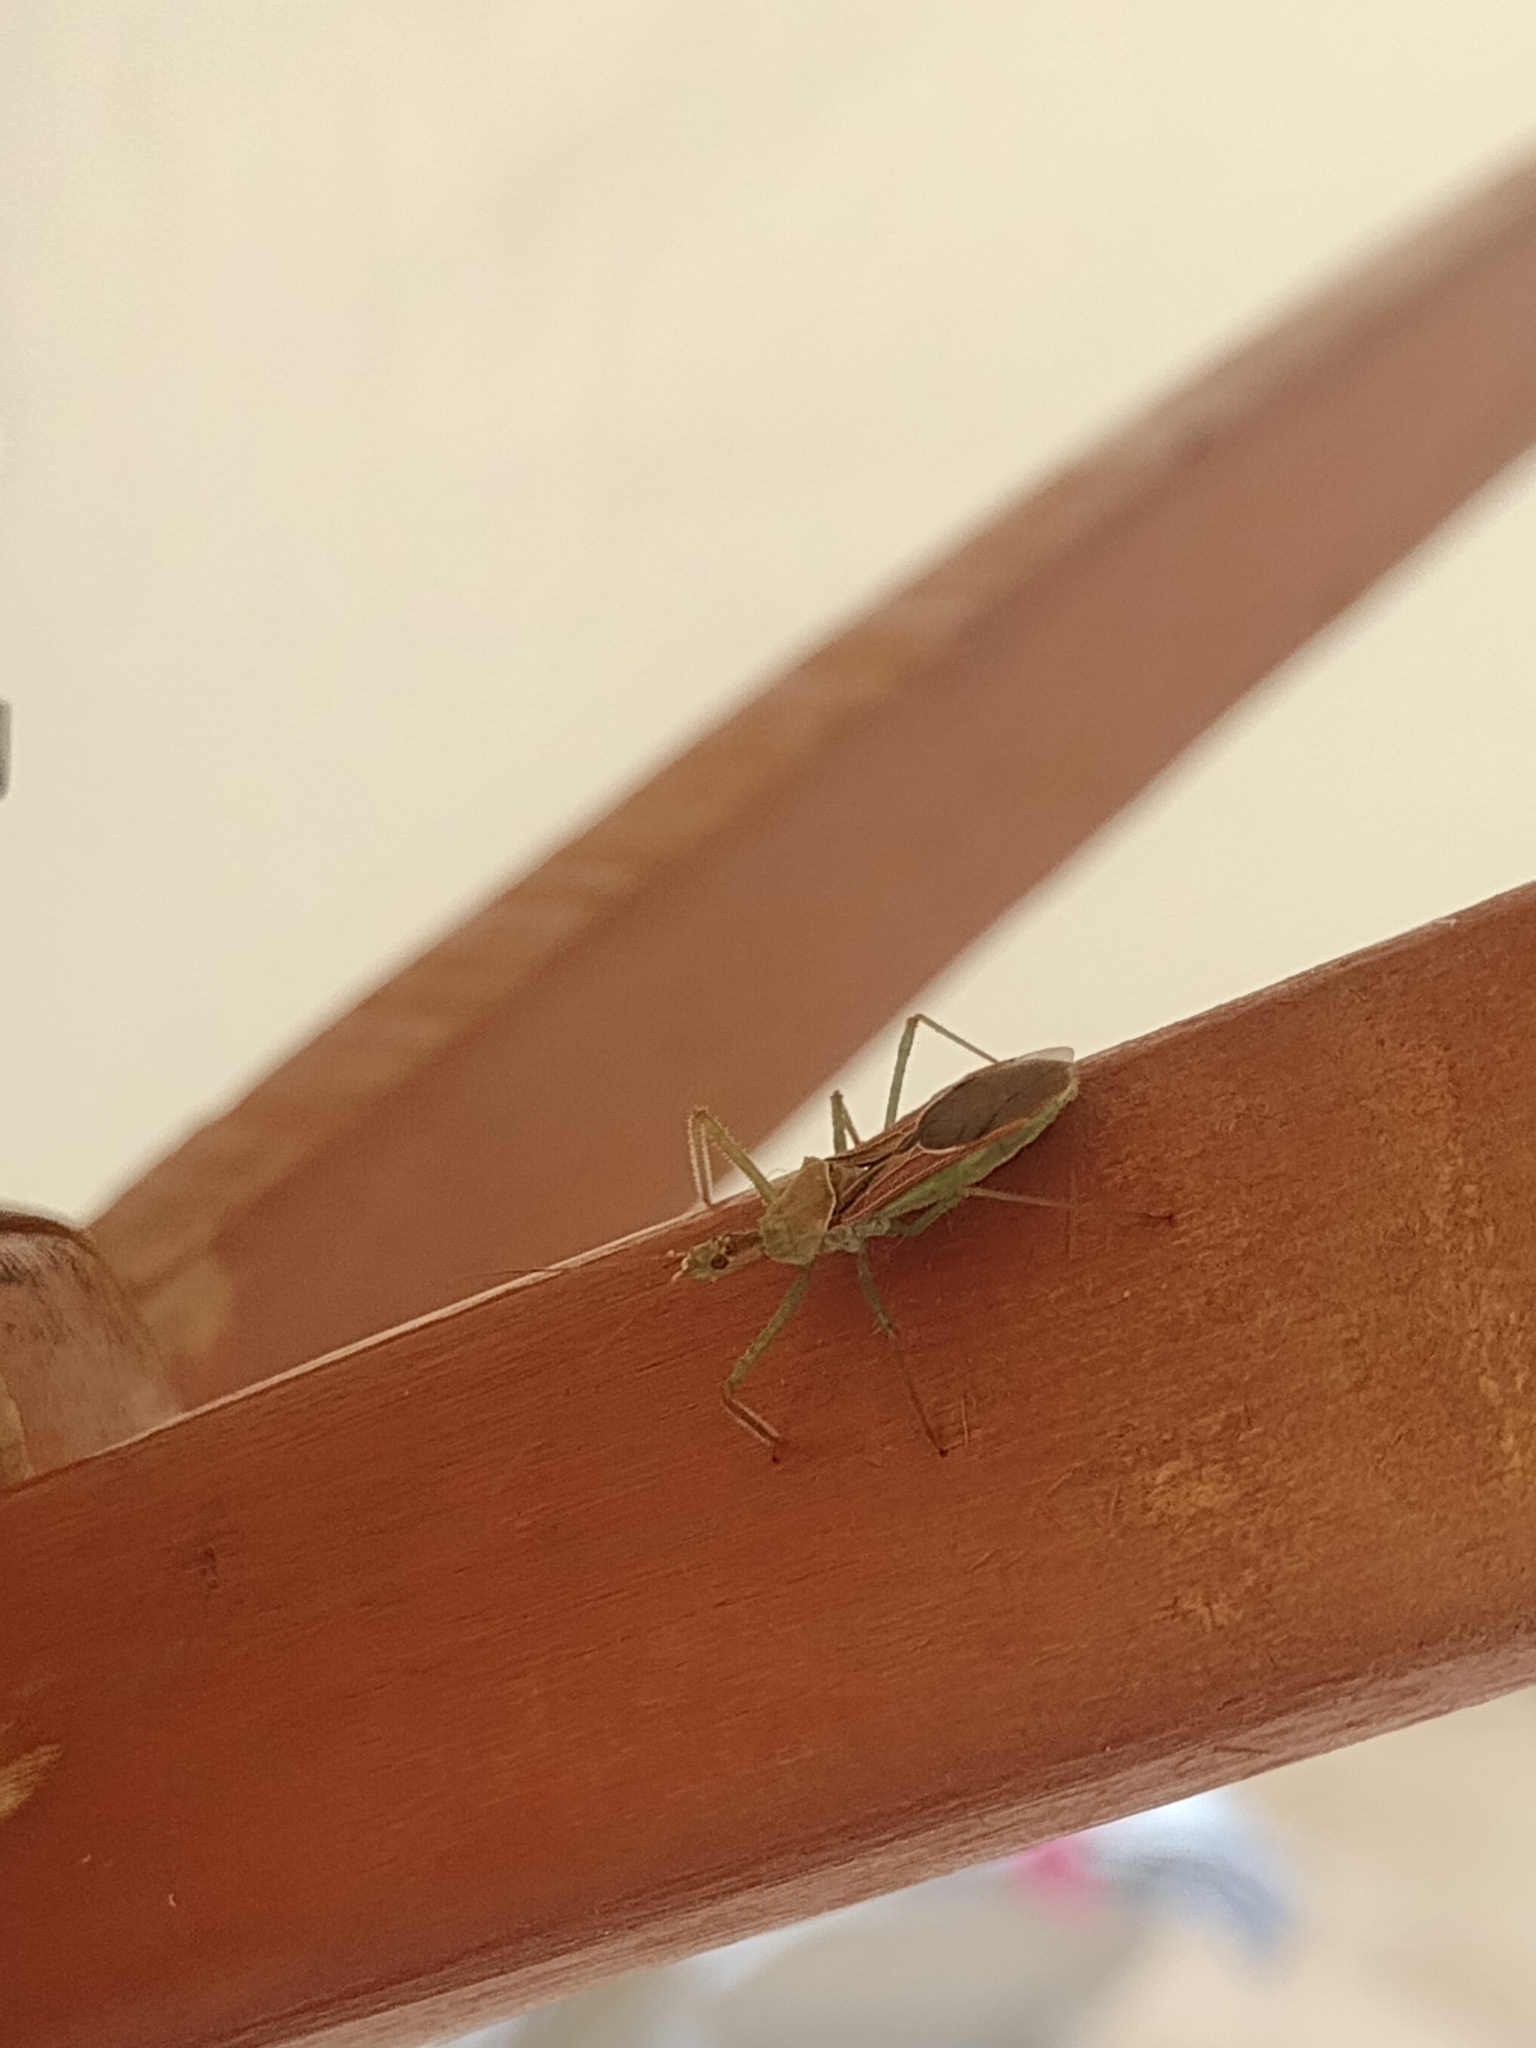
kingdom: Animalia
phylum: Arthropoda
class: Insecta
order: Hemiptera
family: Reduviidae
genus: Zelus
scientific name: Zelus renardii
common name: Assassin bug
